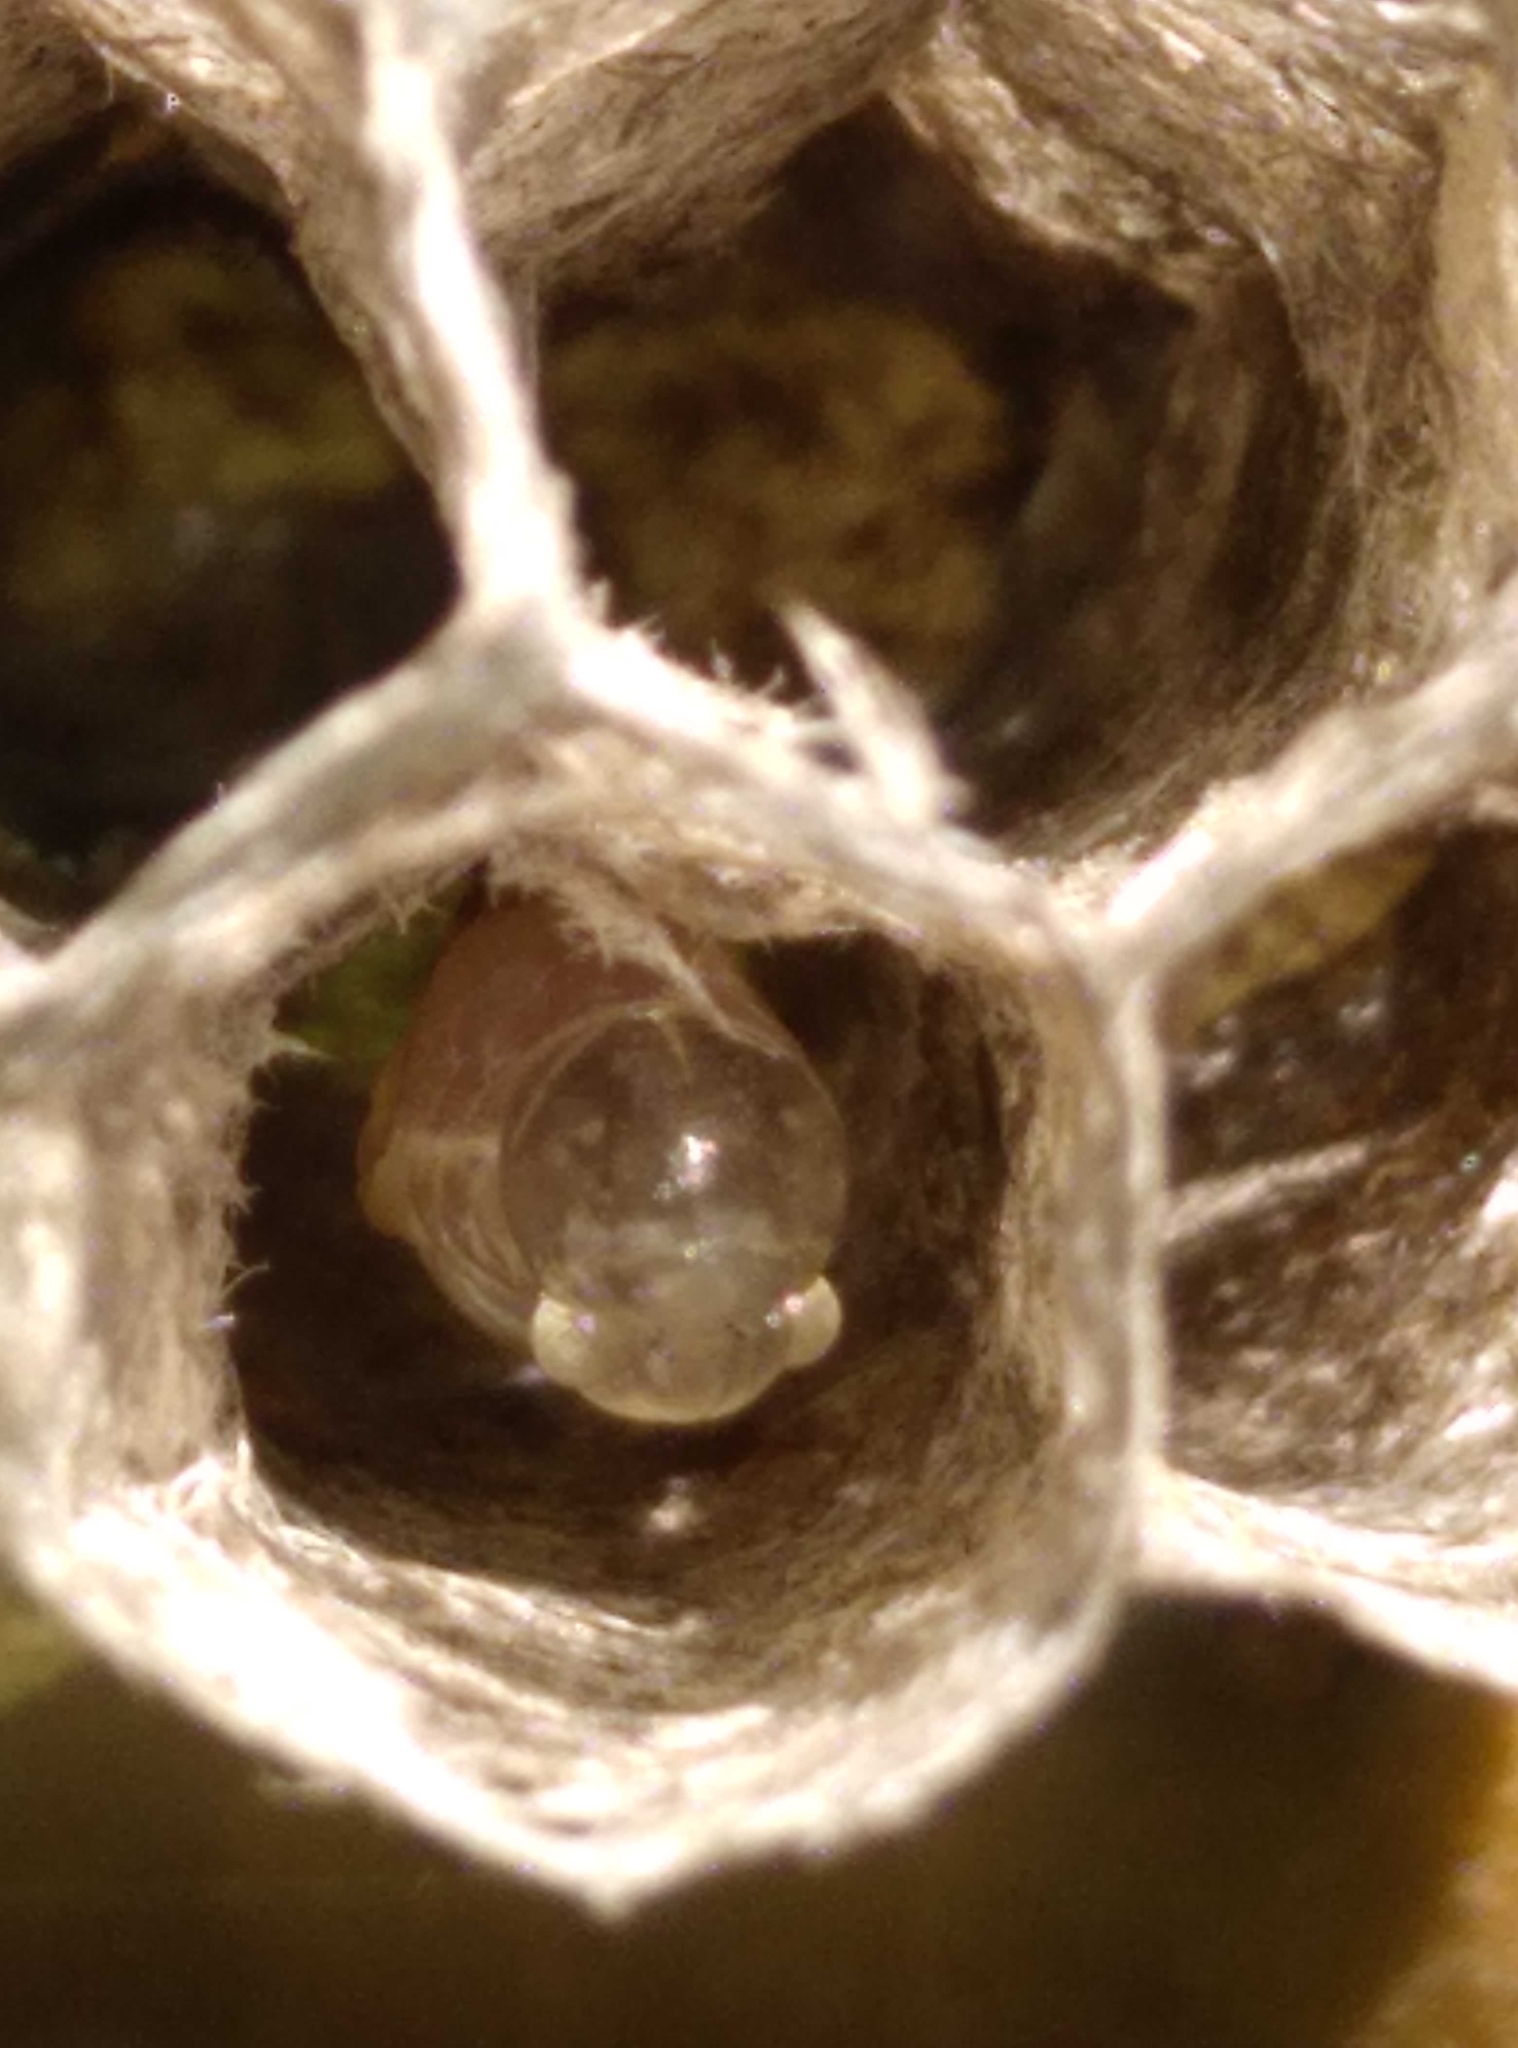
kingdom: Animalia
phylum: Arthropoda
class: Insecta
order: Hymenoptera
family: Eumenidae
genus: Polistes
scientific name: Polistes
